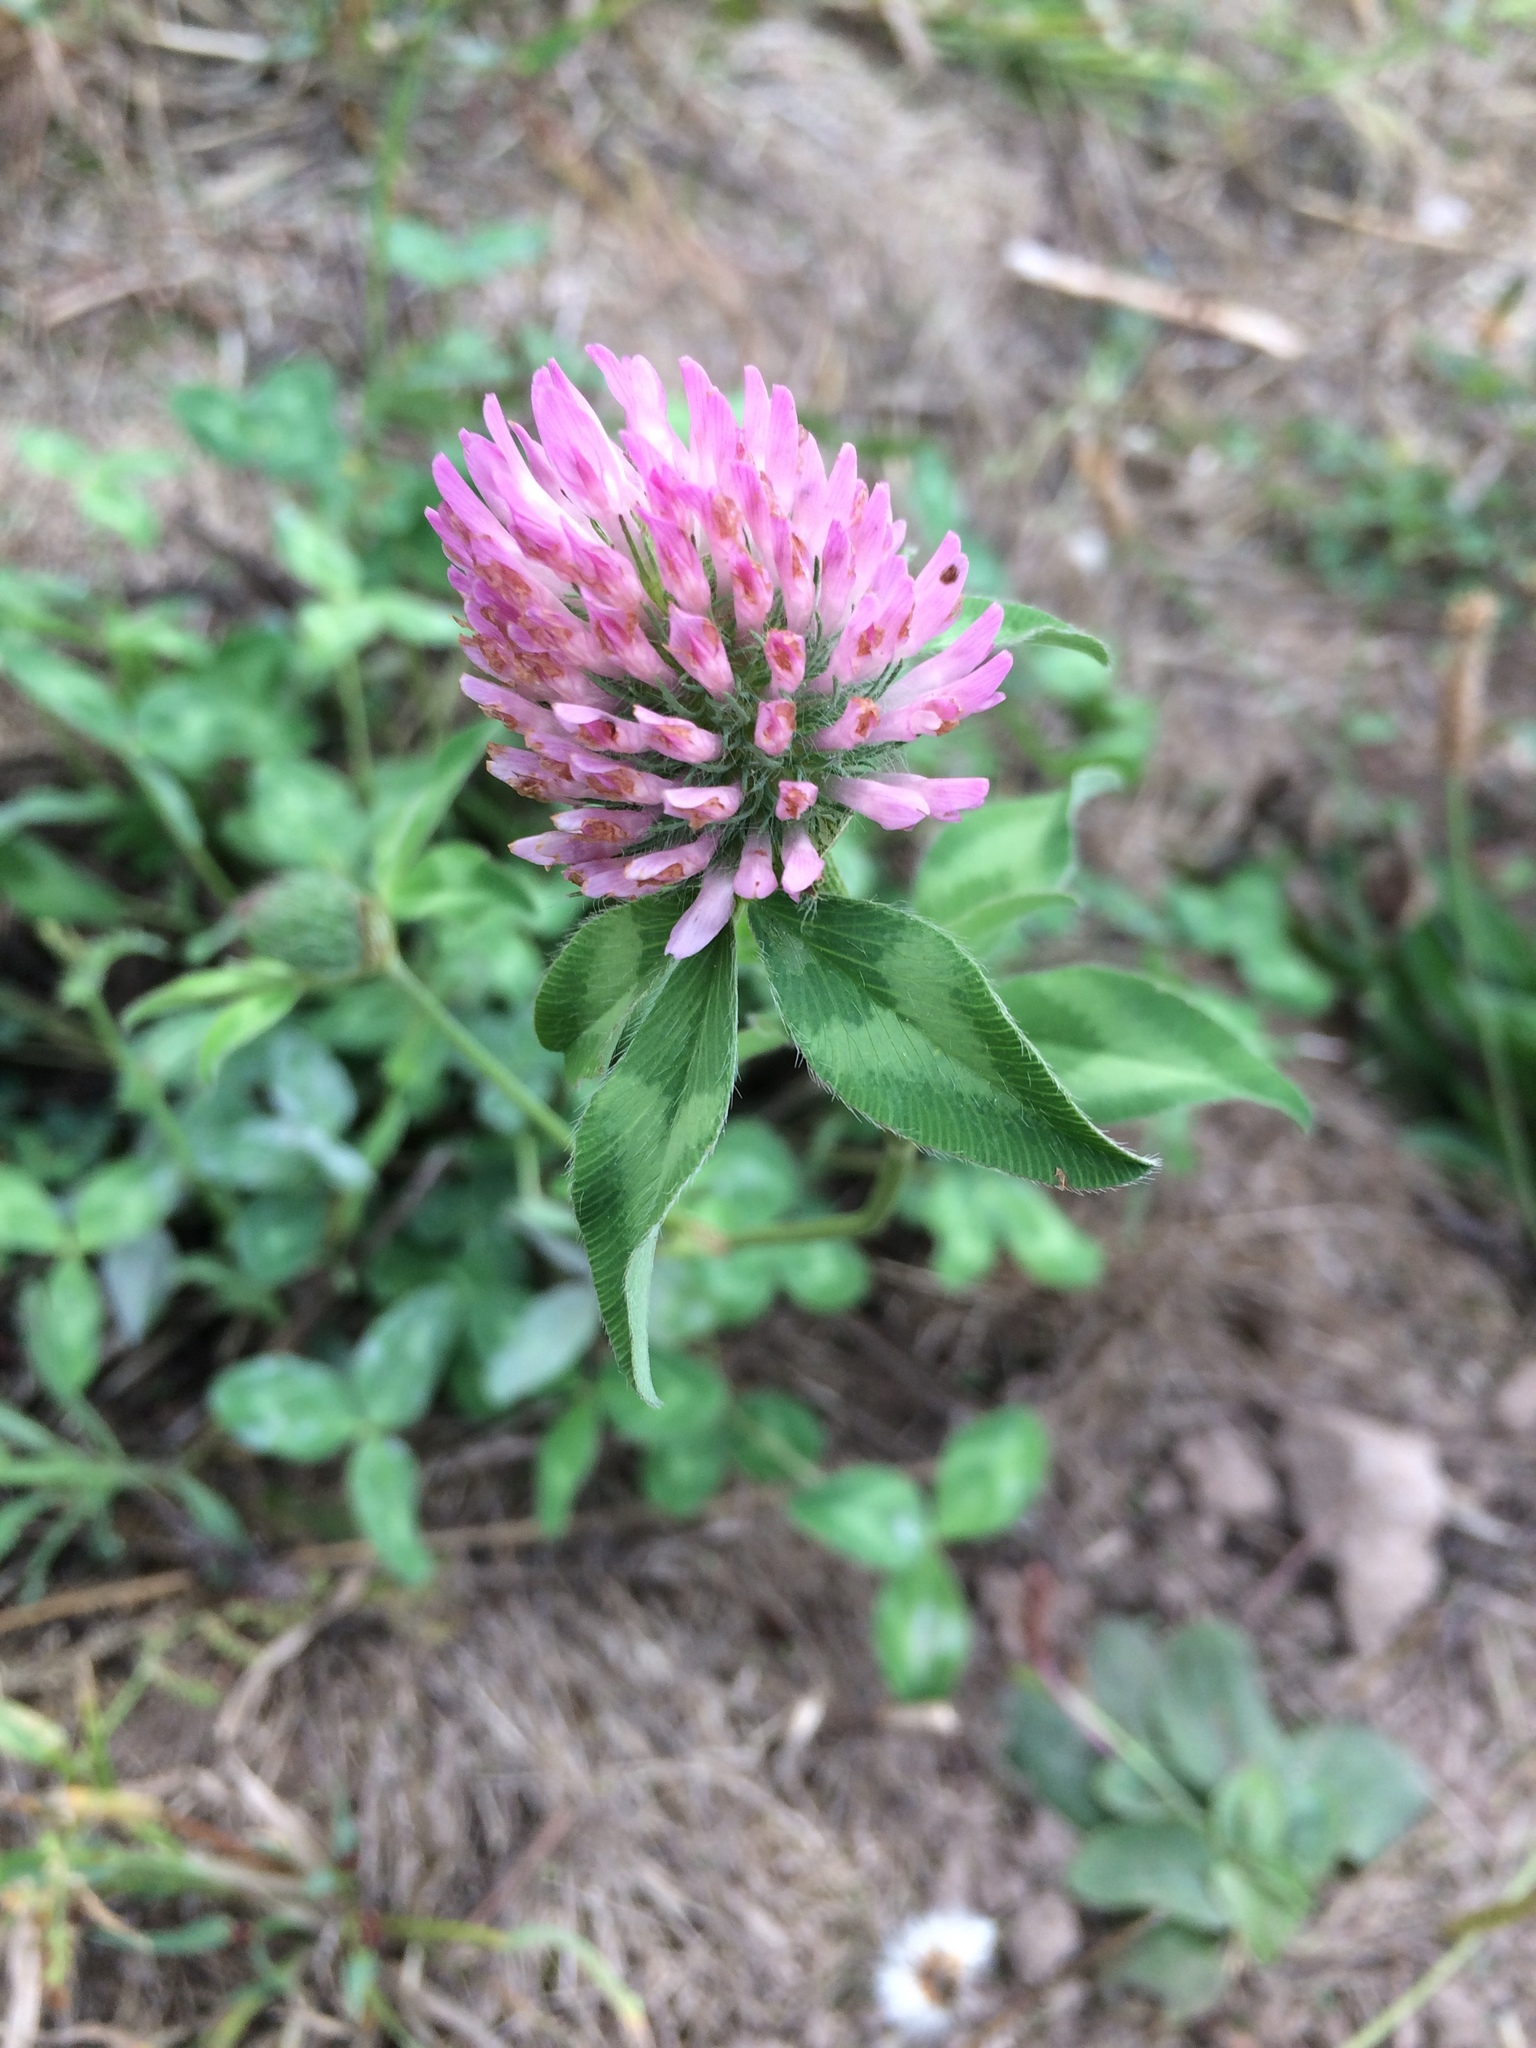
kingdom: Plantae
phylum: Tracheophyta
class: Magnoliopsida
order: Fabales
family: Fabaceae
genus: Trifolium
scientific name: Trifolium pratense
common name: Red clover
